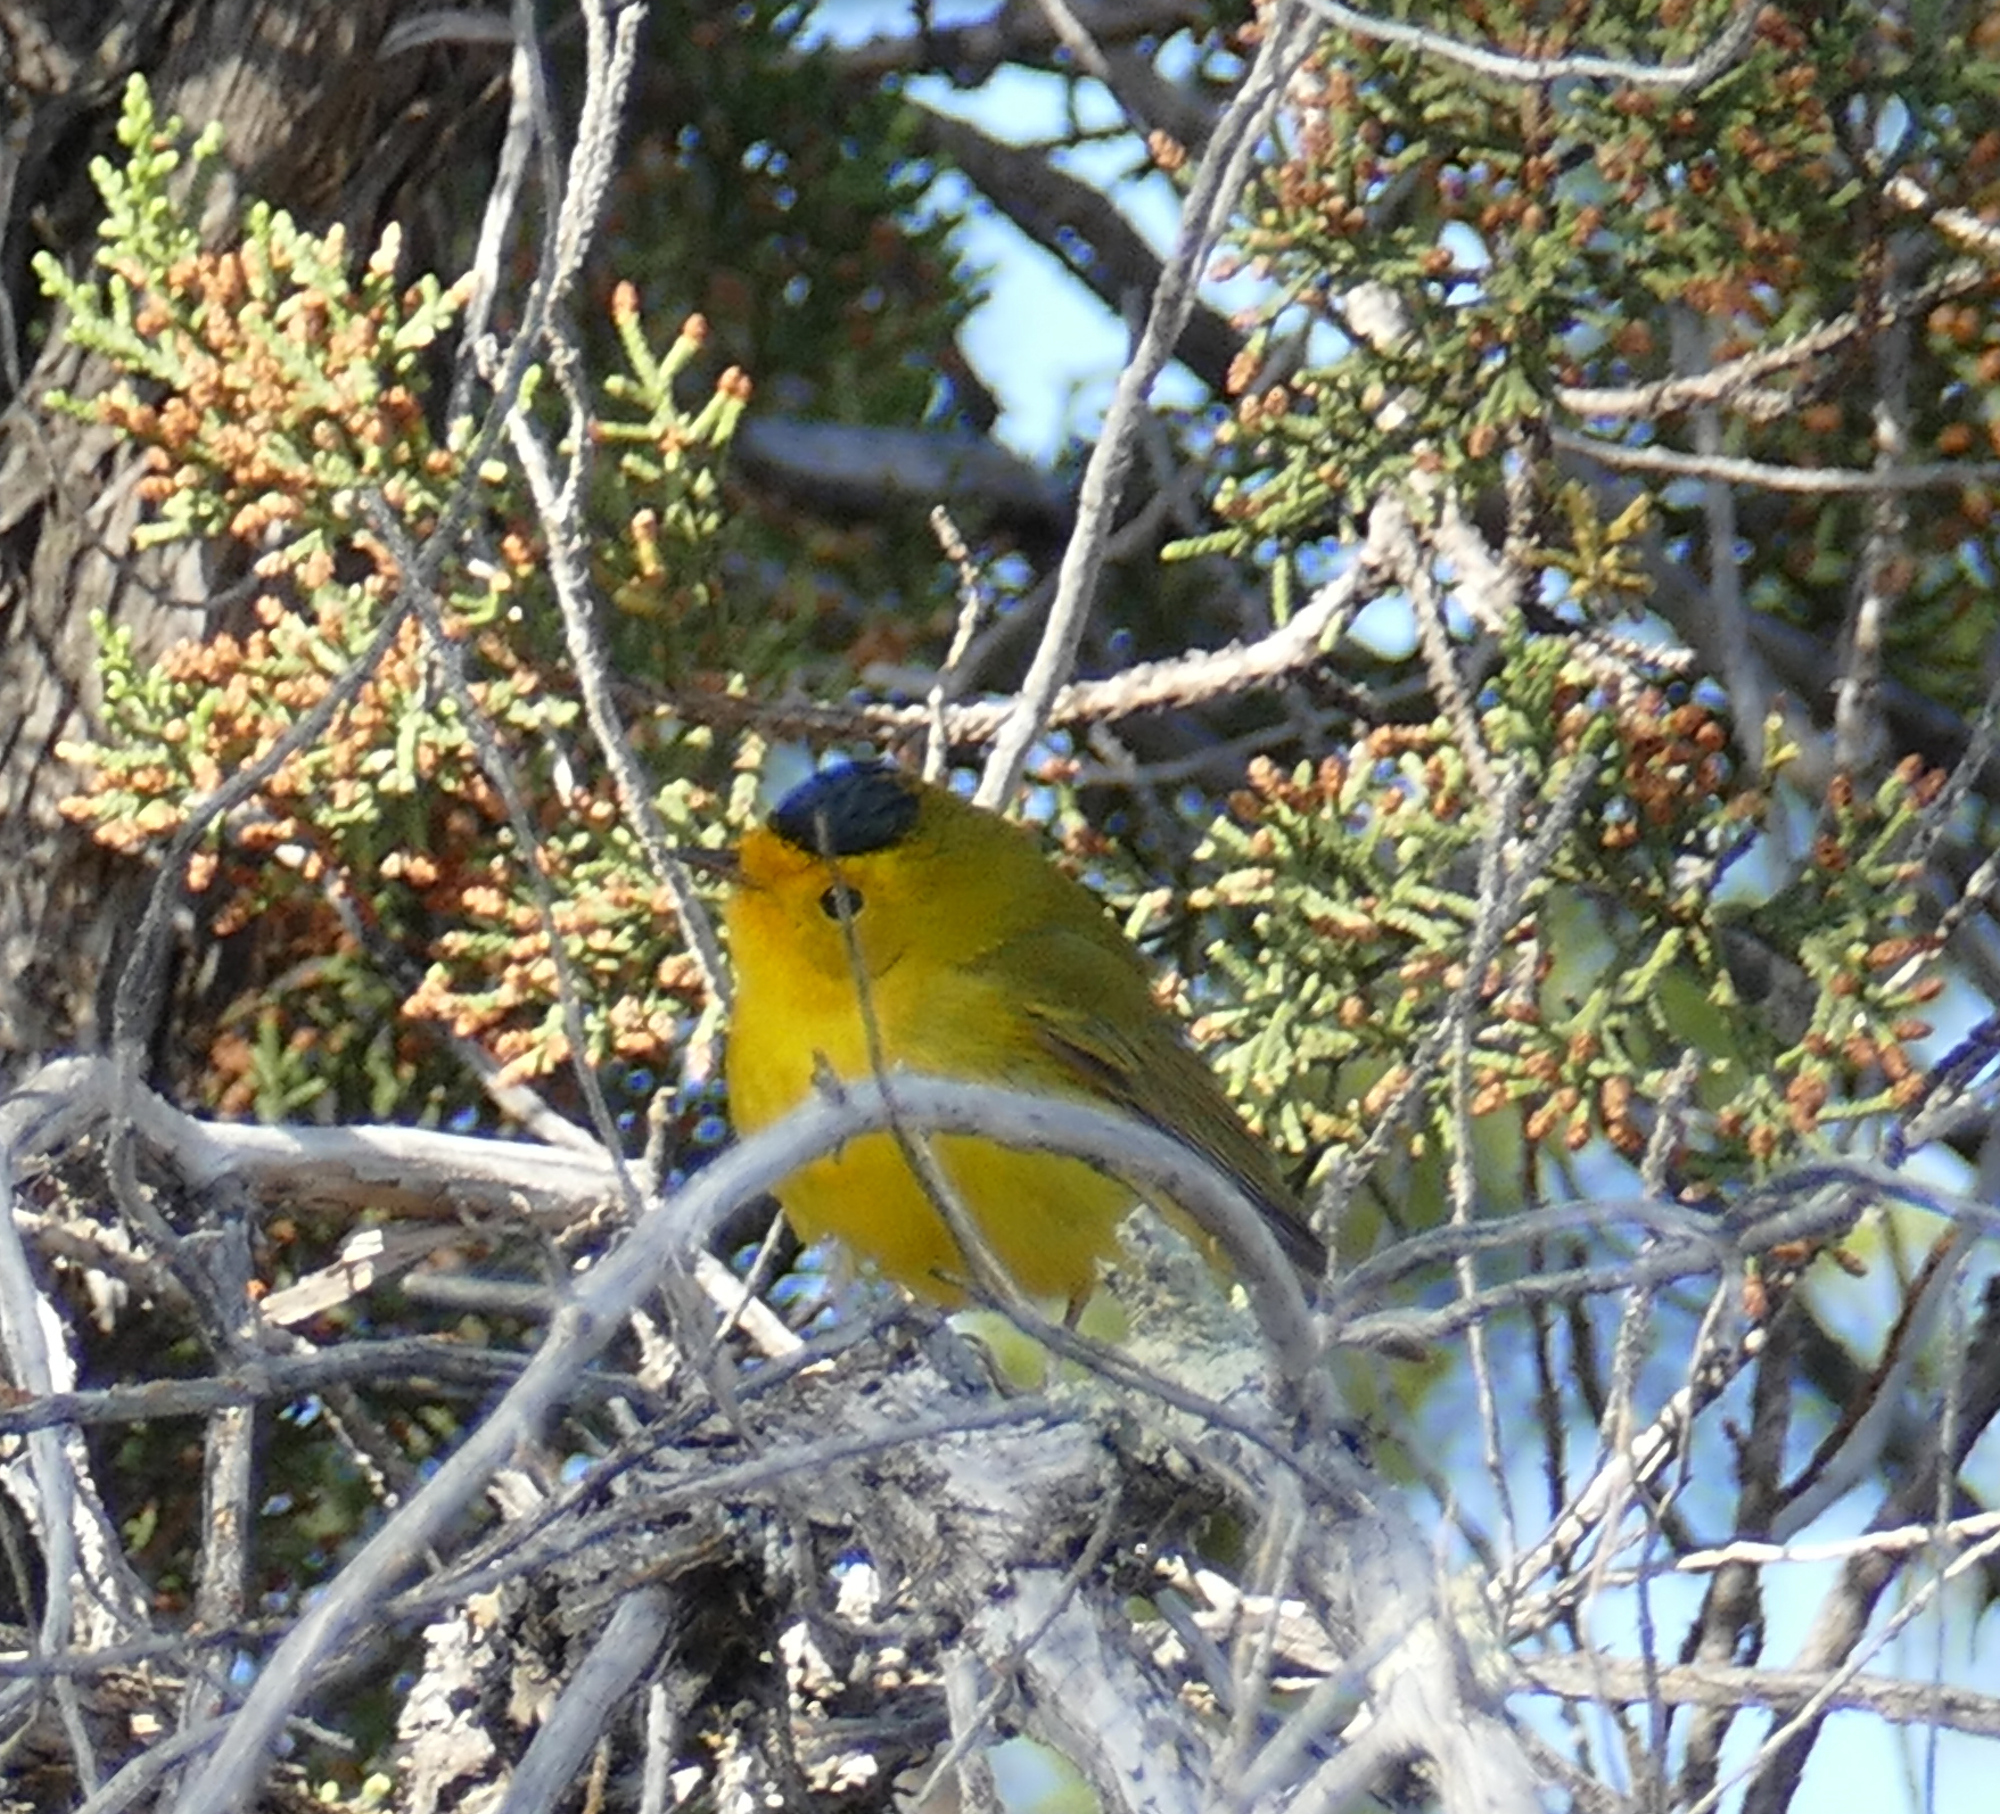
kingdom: Animalia
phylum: Chordata
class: Aves
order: Passeriformes
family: Parulidae
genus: Cardellina
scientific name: Cardellina pusilla
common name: Wilson's warbler
